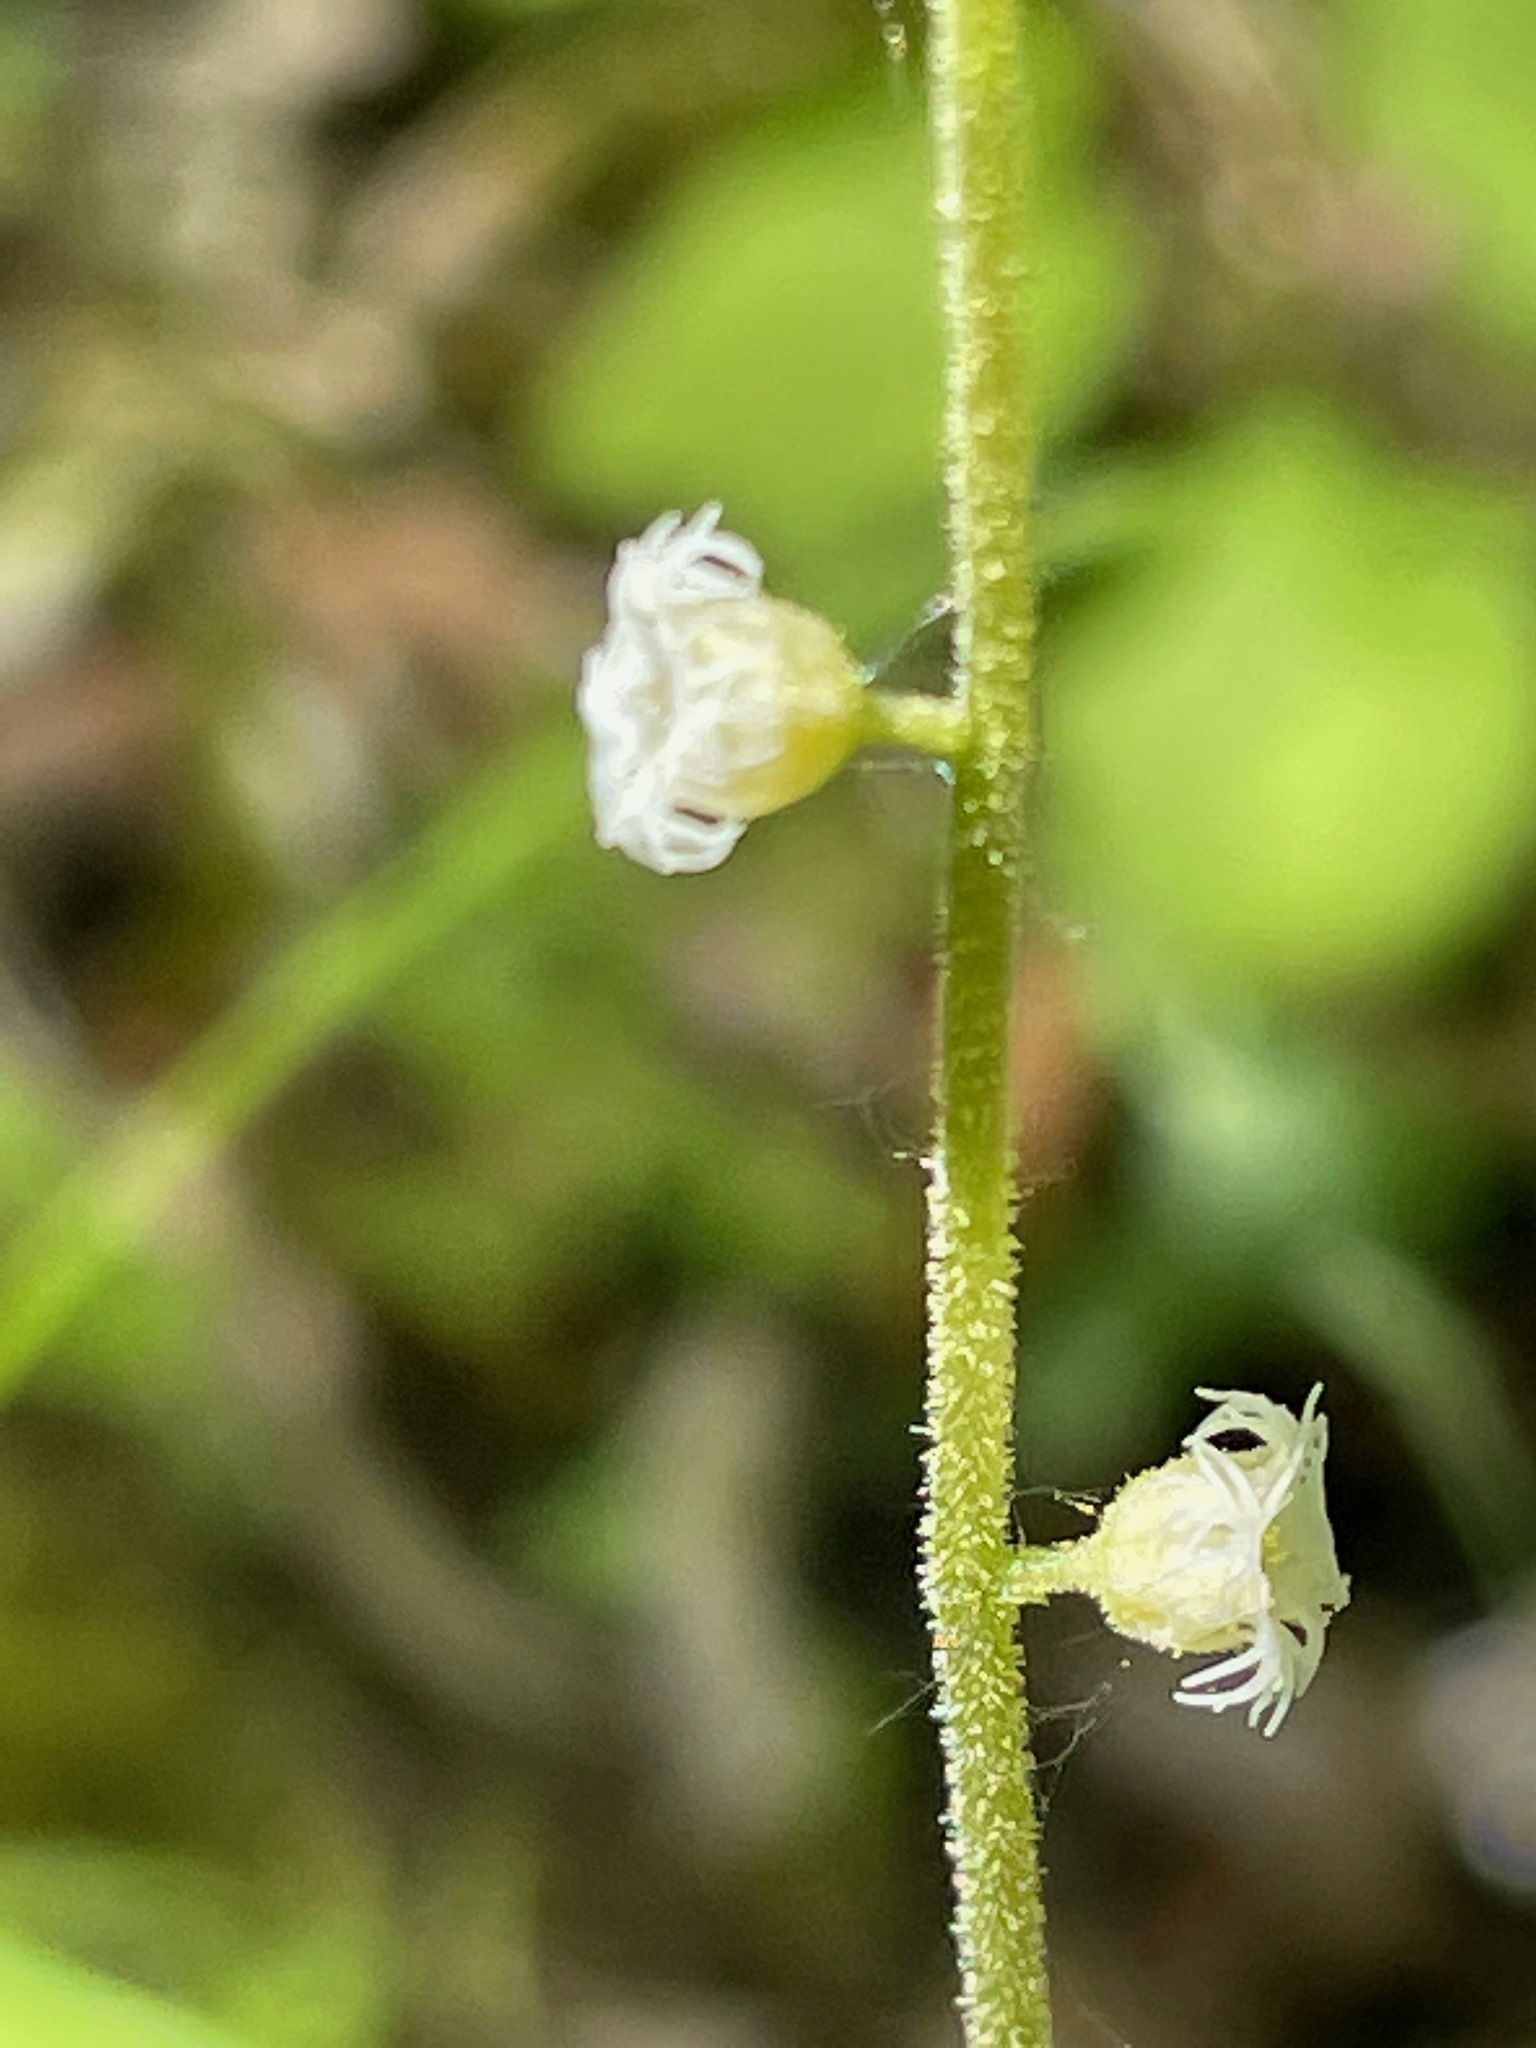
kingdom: Plantae
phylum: Tracheophyta
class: Magnoliopsida
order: Saxifragales
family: Saxifragaceae
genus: Mitella
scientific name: Mitella diphylla
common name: Coolwort
